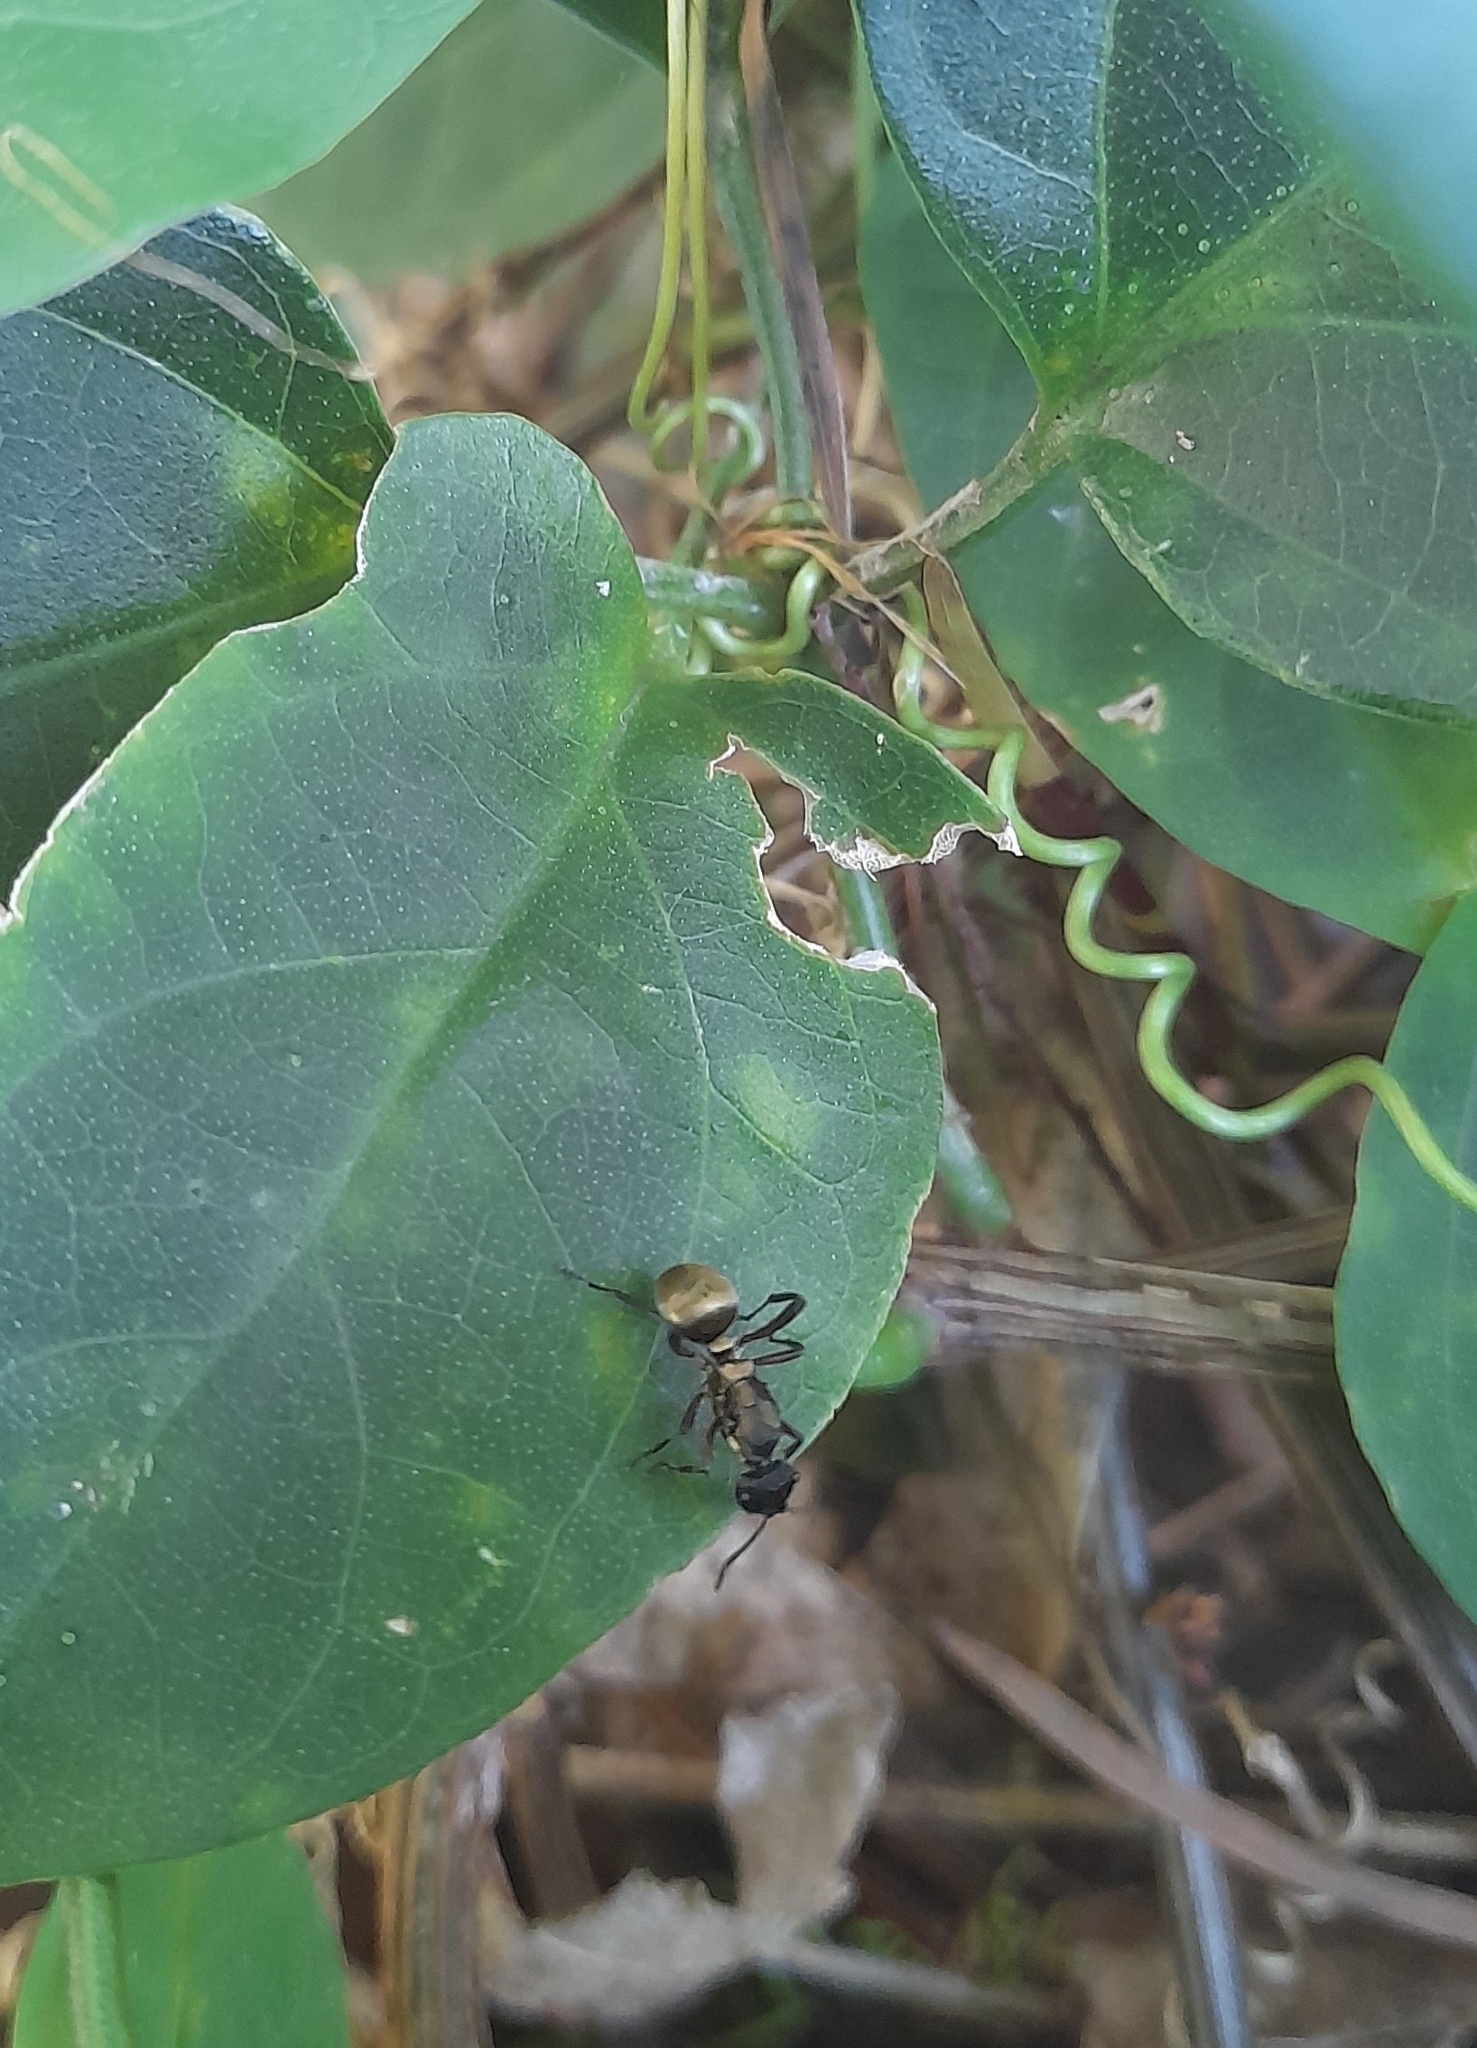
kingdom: Animalia
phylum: Arthropoda
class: Insecta
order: Hymenoptera
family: Formicidae
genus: Polyrhachis
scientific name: Polyrhachis rufifemur
